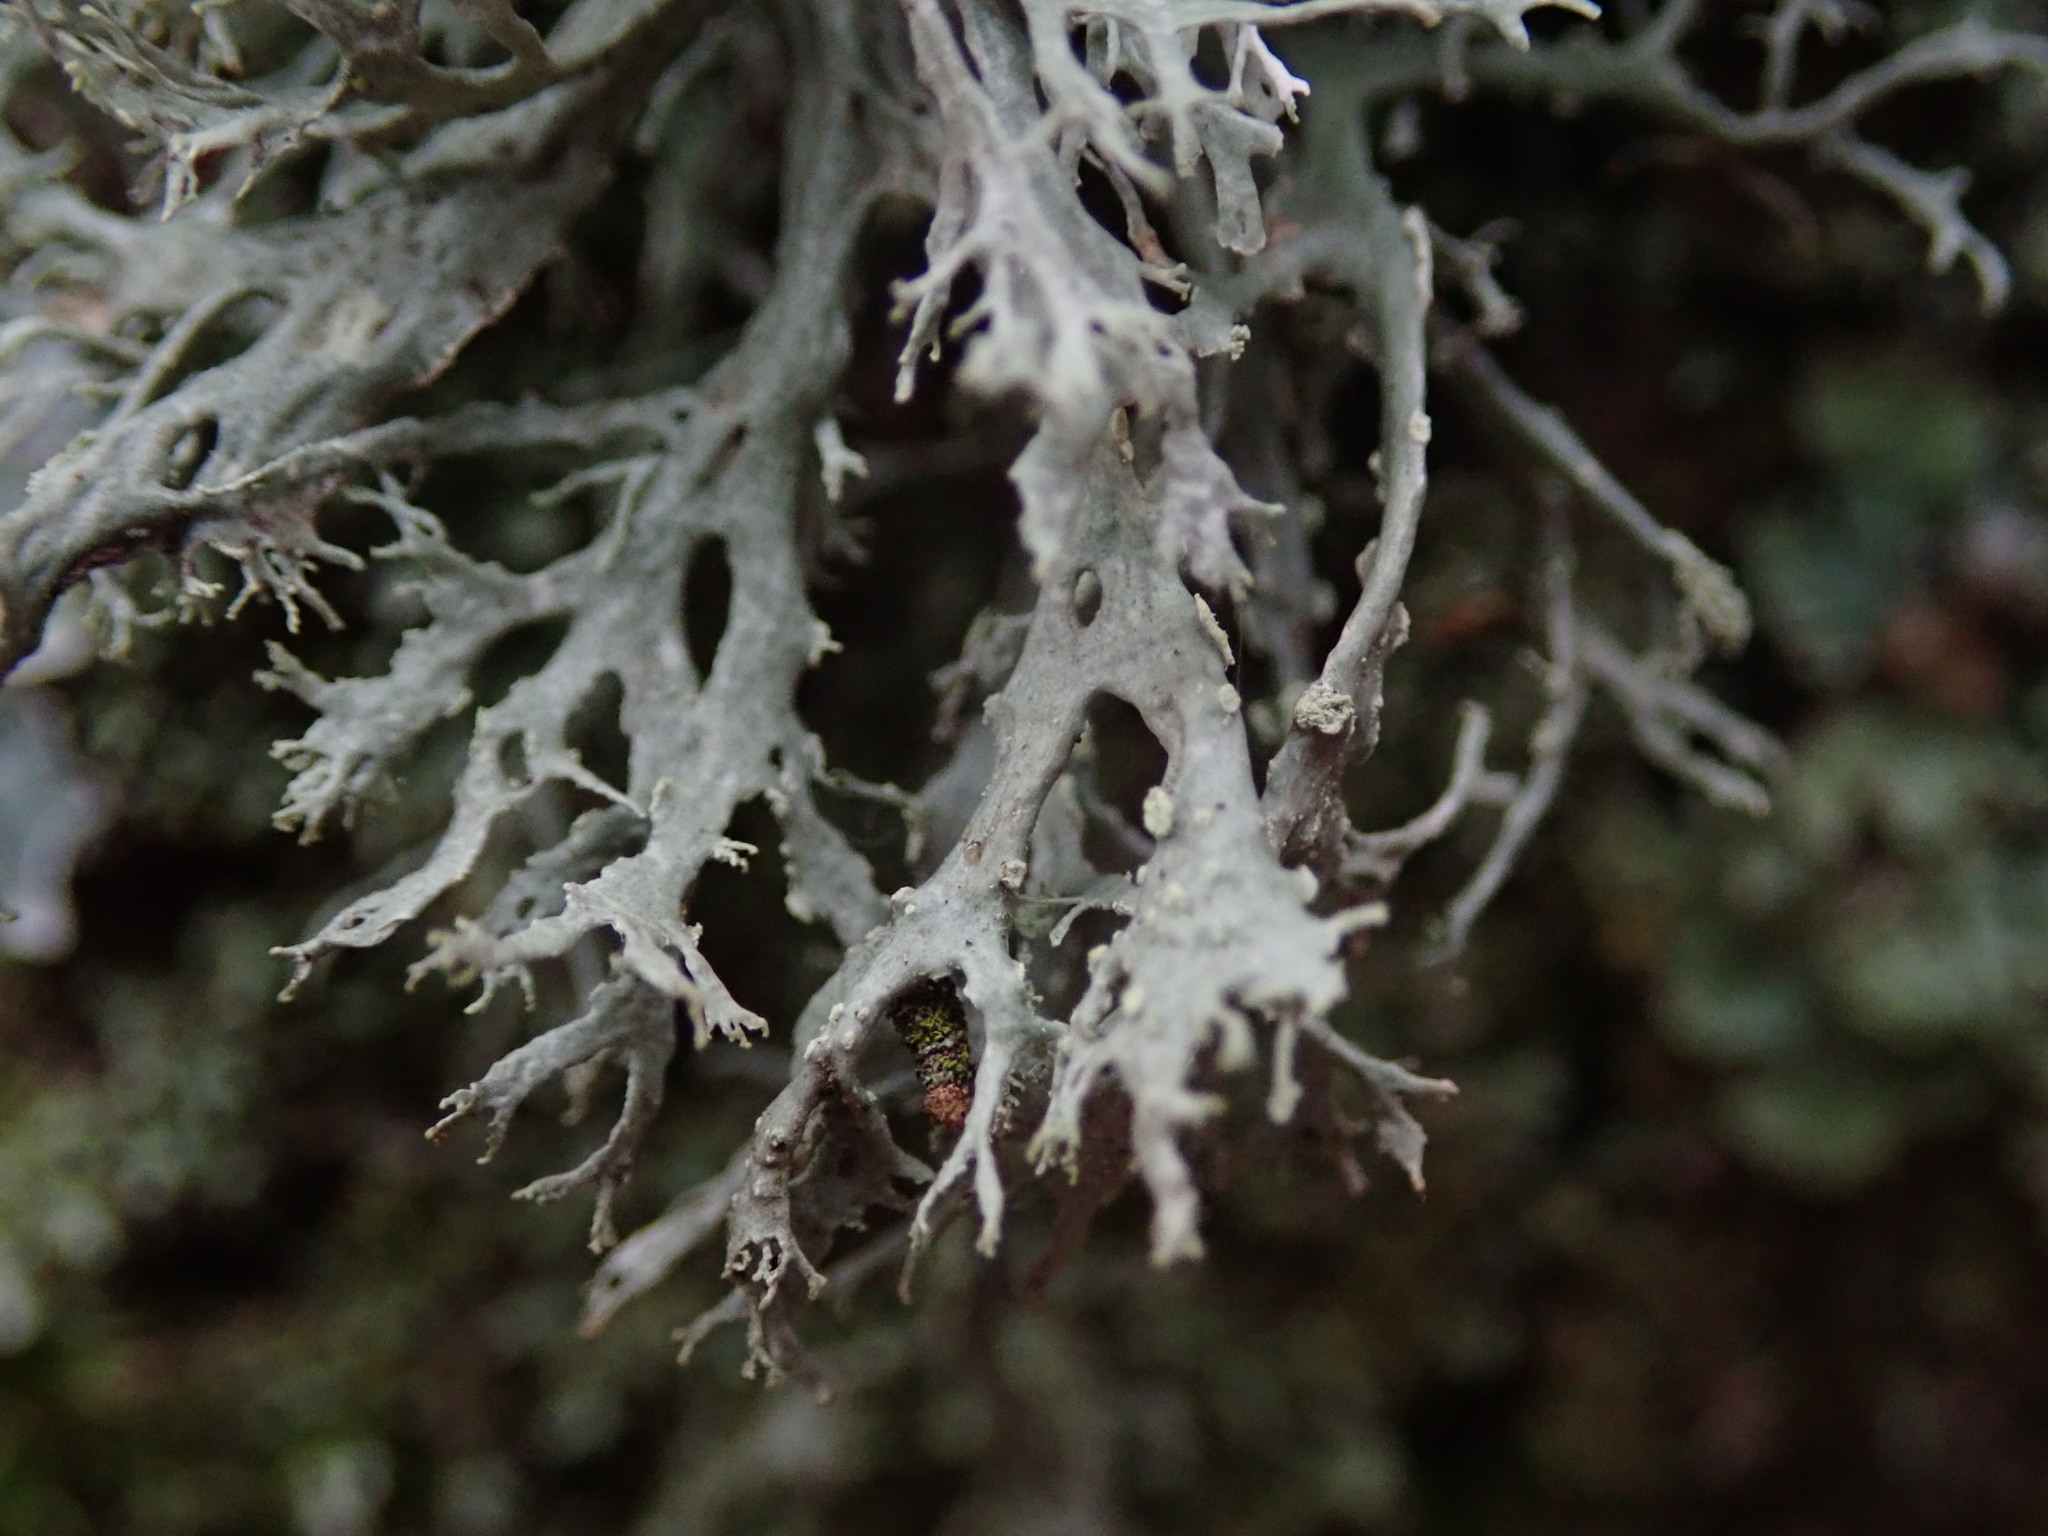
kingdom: Fungi
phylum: Ascomycota
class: Lecanoromycetes
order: Lecanorales
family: Parmeliaceae
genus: Evernia
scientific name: Evernia prunastri
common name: Oak moss
